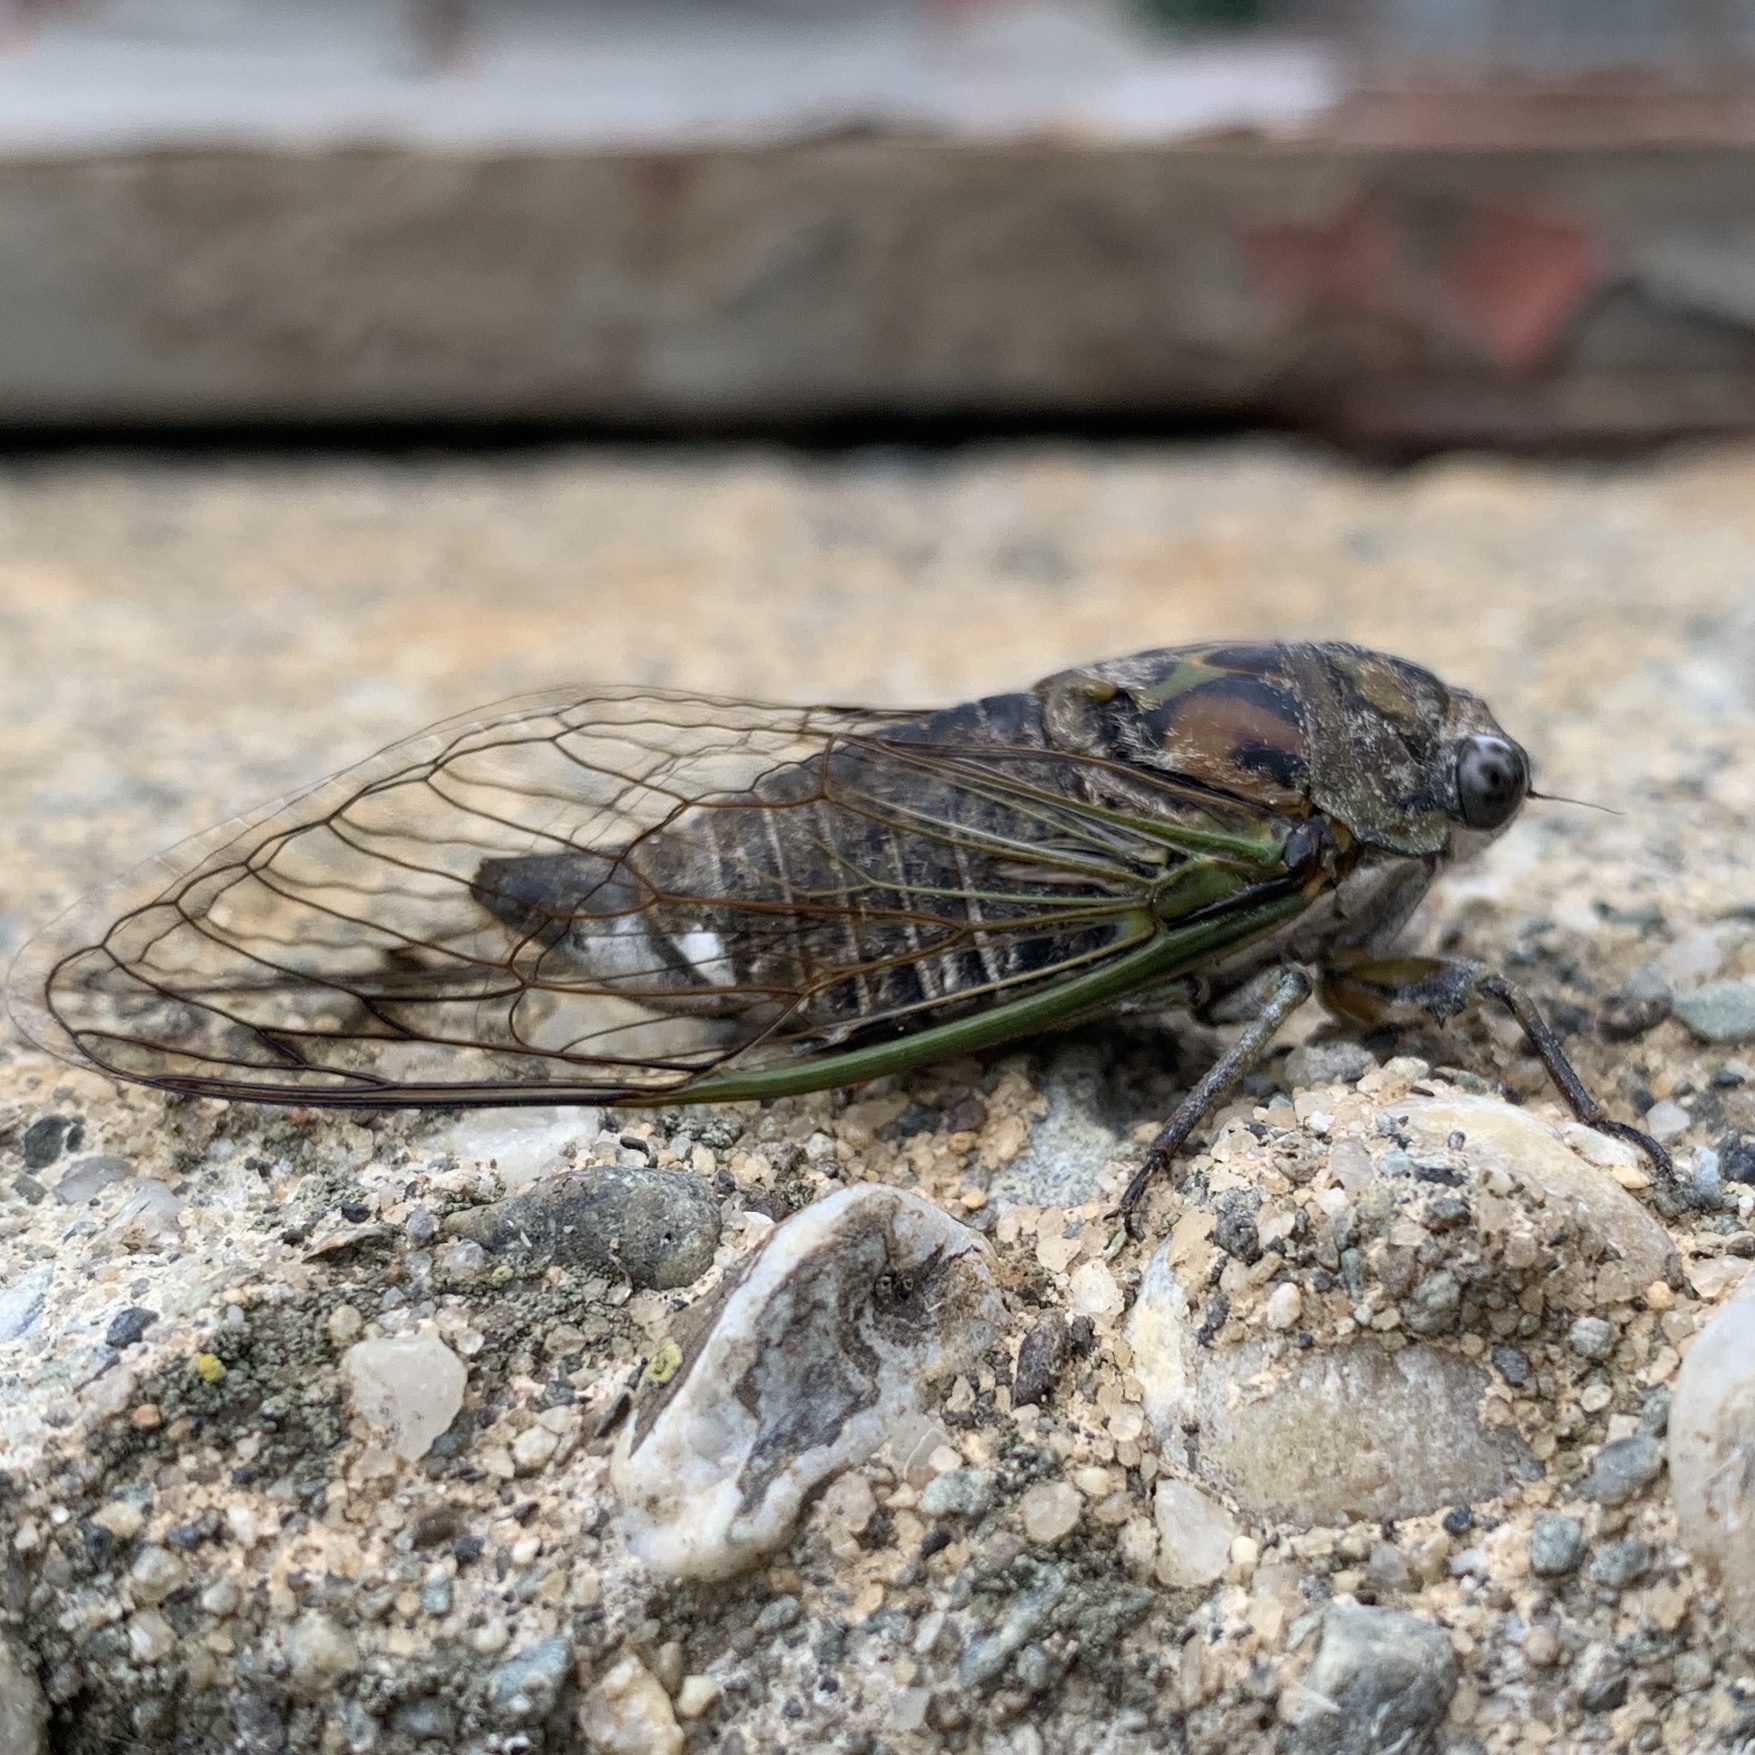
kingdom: Animalia
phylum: Arthropoda
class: Insecta
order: Hemiptera
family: Cicadidae
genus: Neotibicen
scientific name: Neotibicen canicularis
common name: God-day cicada
